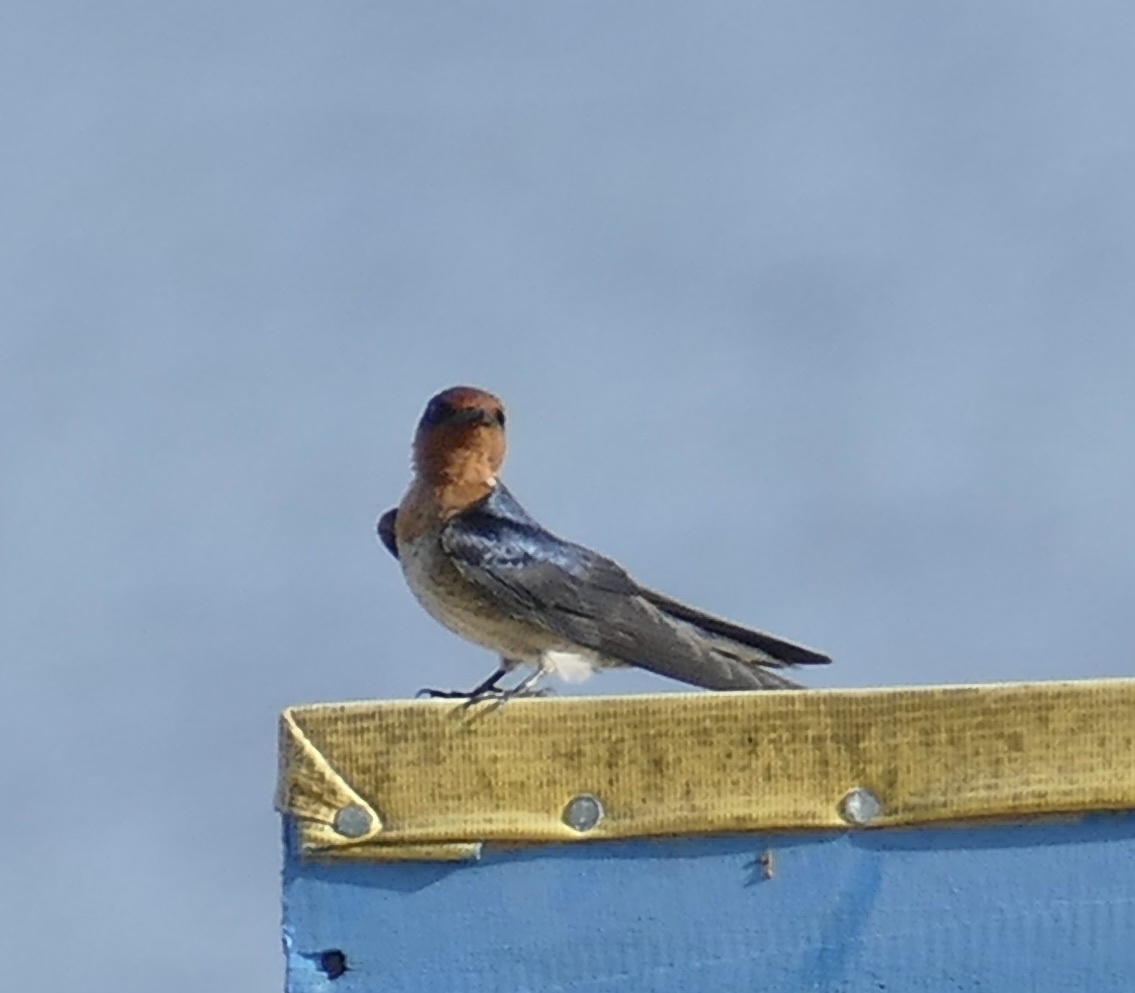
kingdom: Animalia
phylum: Chordata
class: Aves
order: Passeriformes
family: Hirundinidae
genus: Hirundo
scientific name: Hirundo tahitica
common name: Pacific swallow
